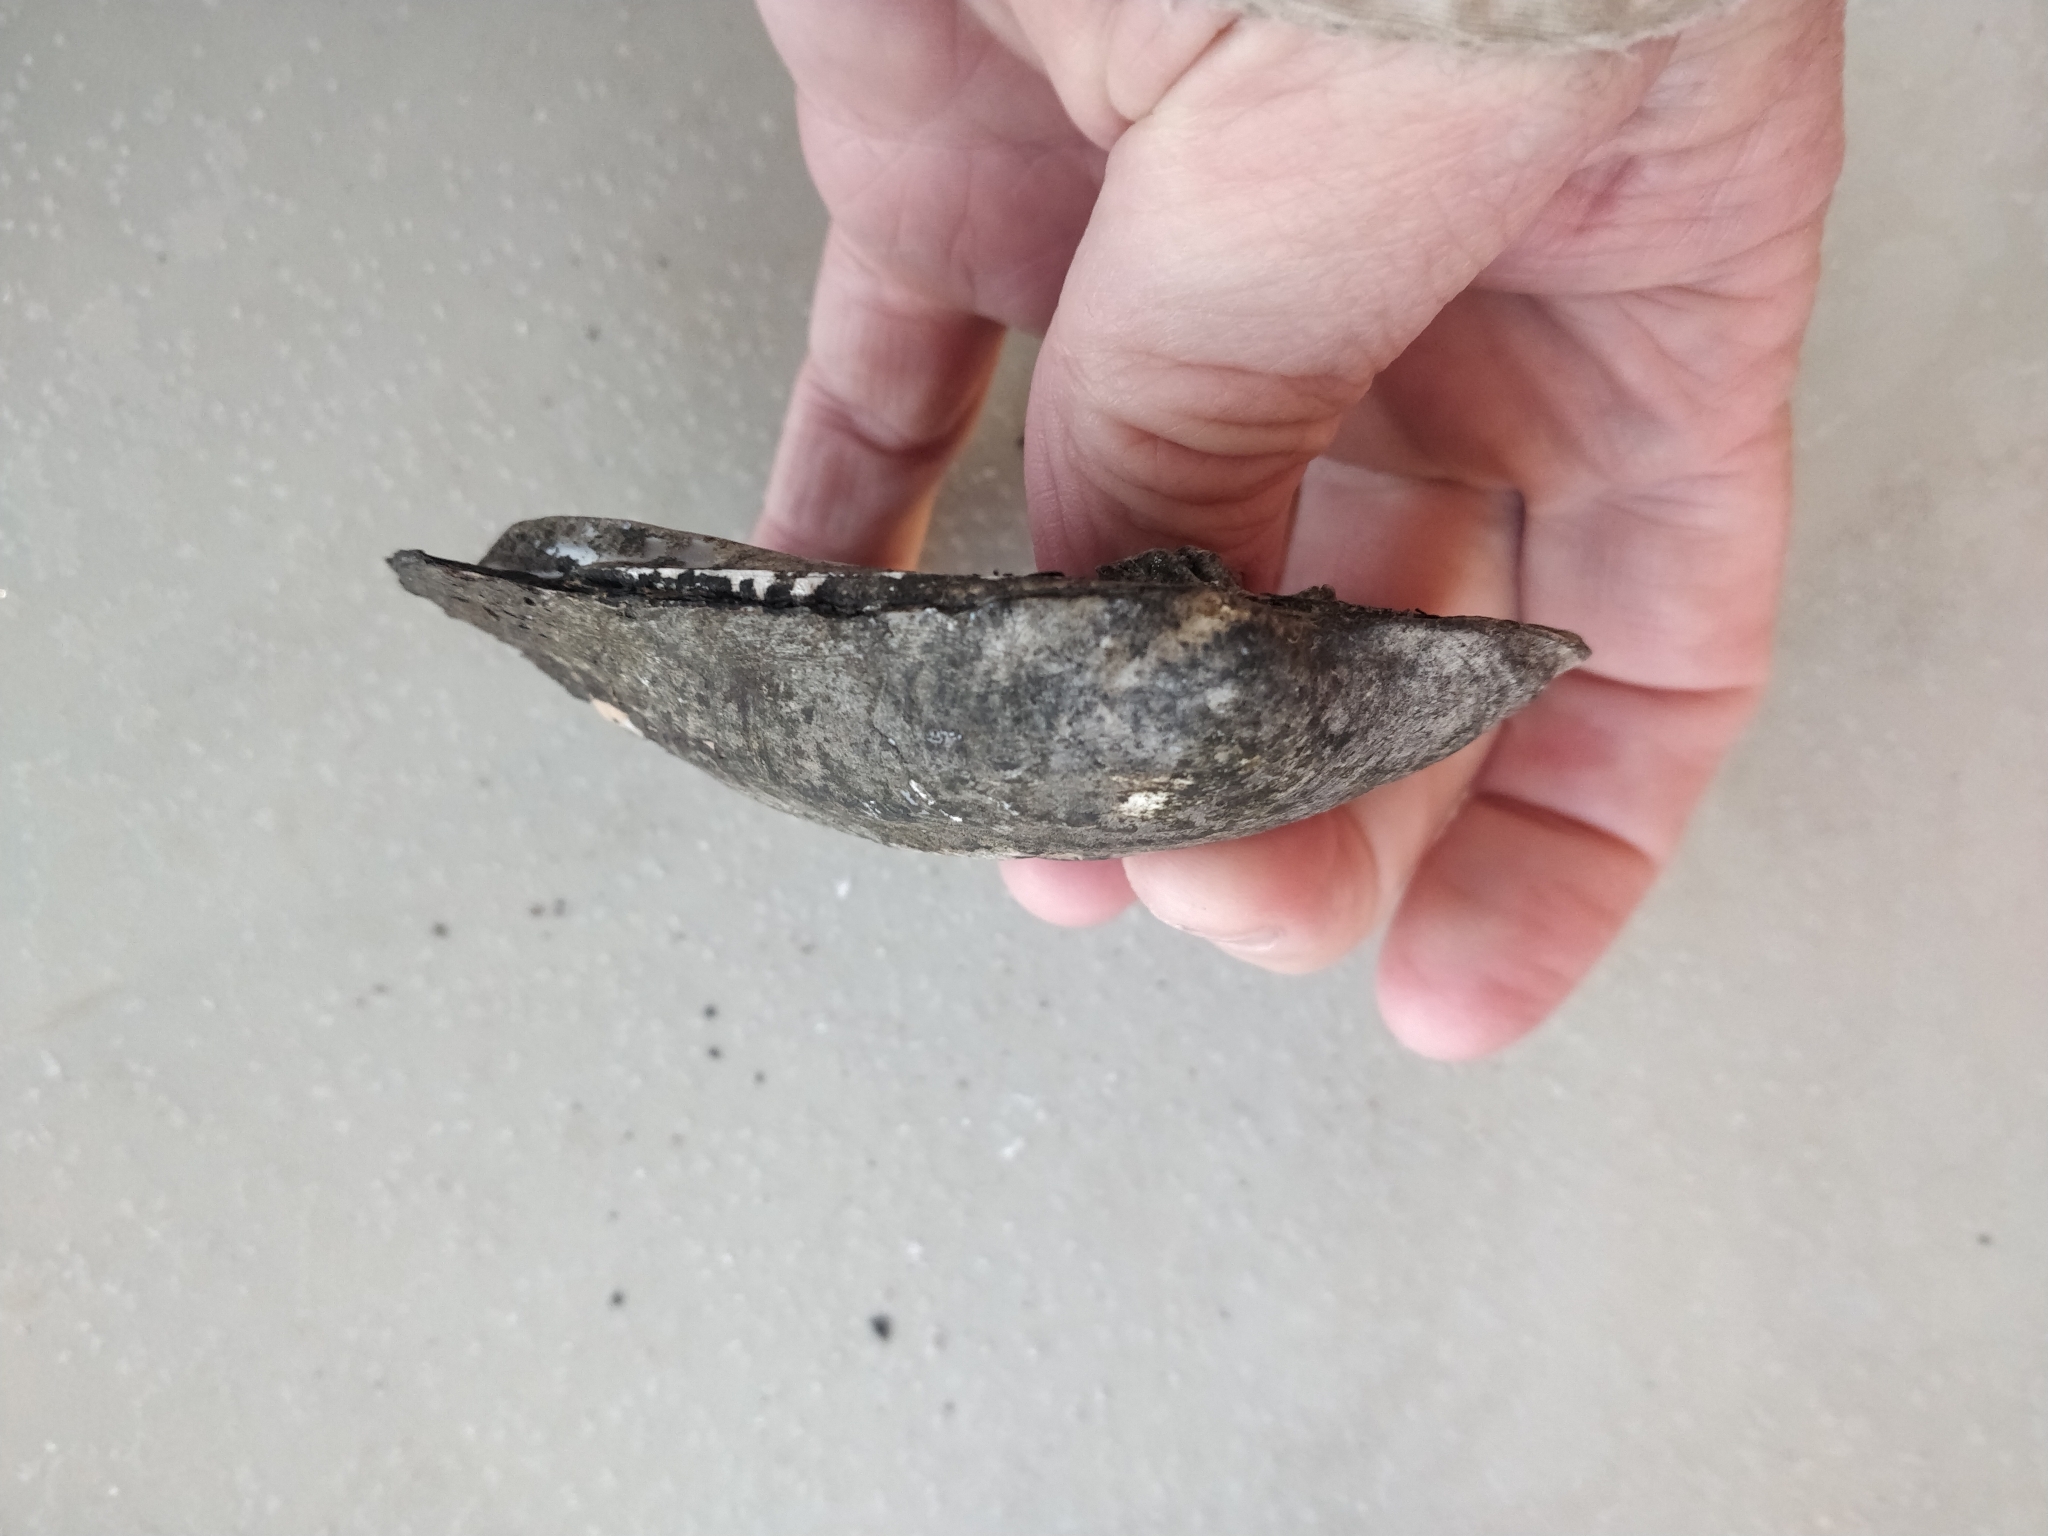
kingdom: Animalia
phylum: Mollusca
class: Bivalvia
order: Unionida
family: Unionidae
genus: Amblema
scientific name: Amblema plicata
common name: Threeridge
